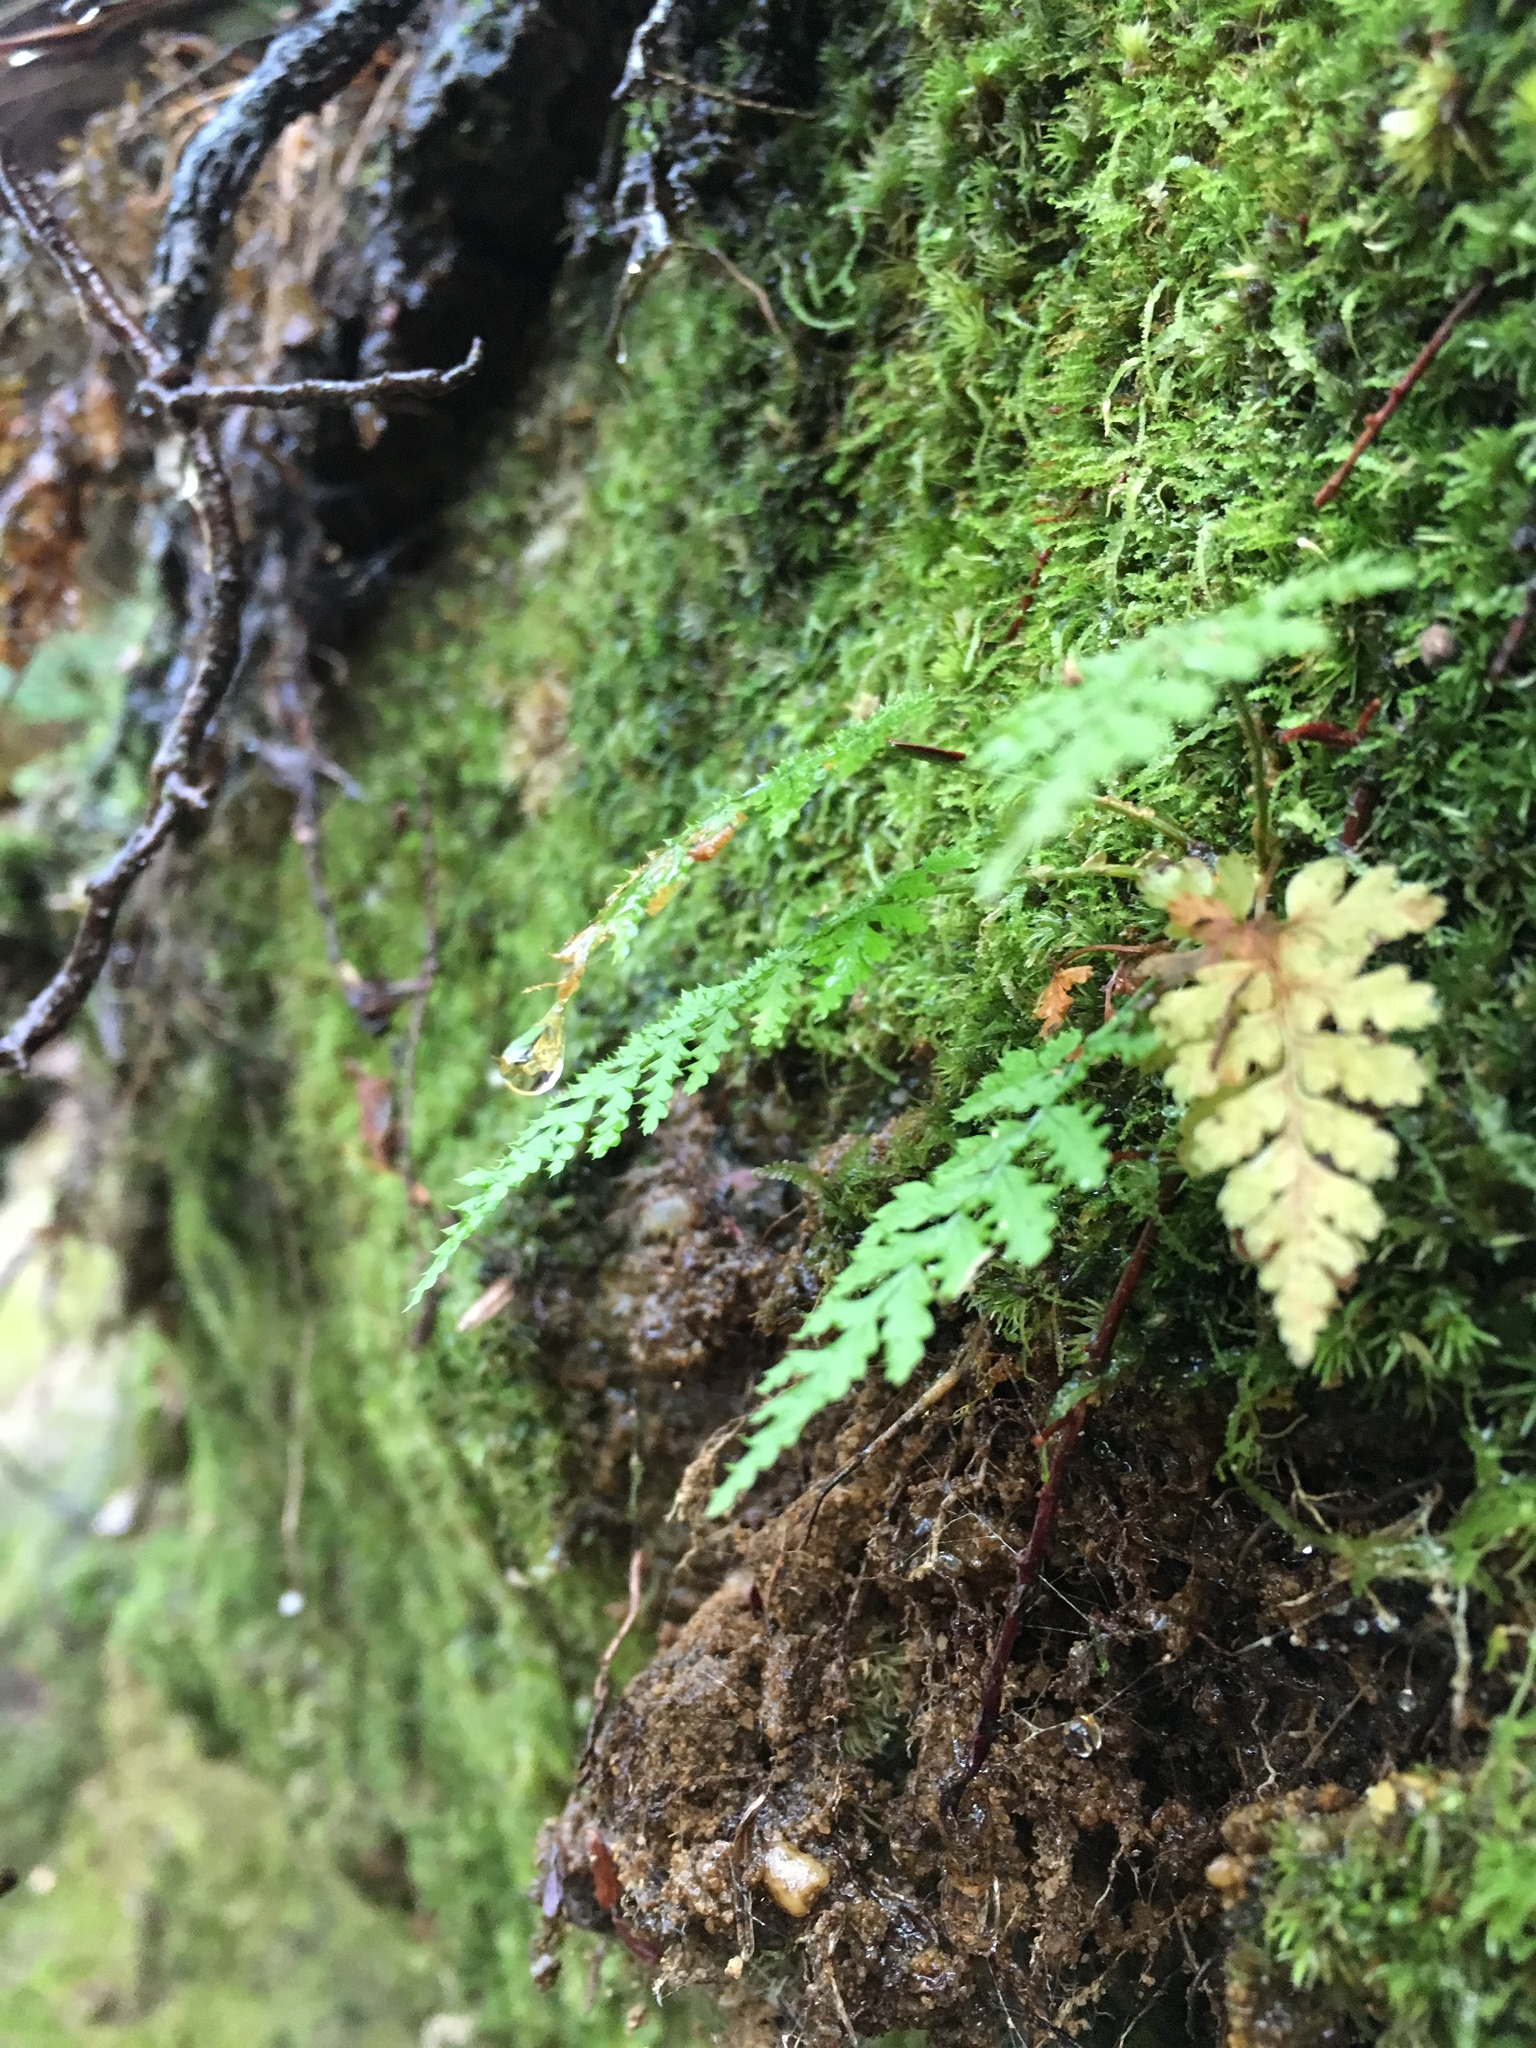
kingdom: Plantae
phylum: Tracheophyta
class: Polypodiopsida
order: Polypodiales
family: Dryopteridaceae
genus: Dryopteris
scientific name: Dryopteris carthusiana
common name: Narrow buckler-fern
